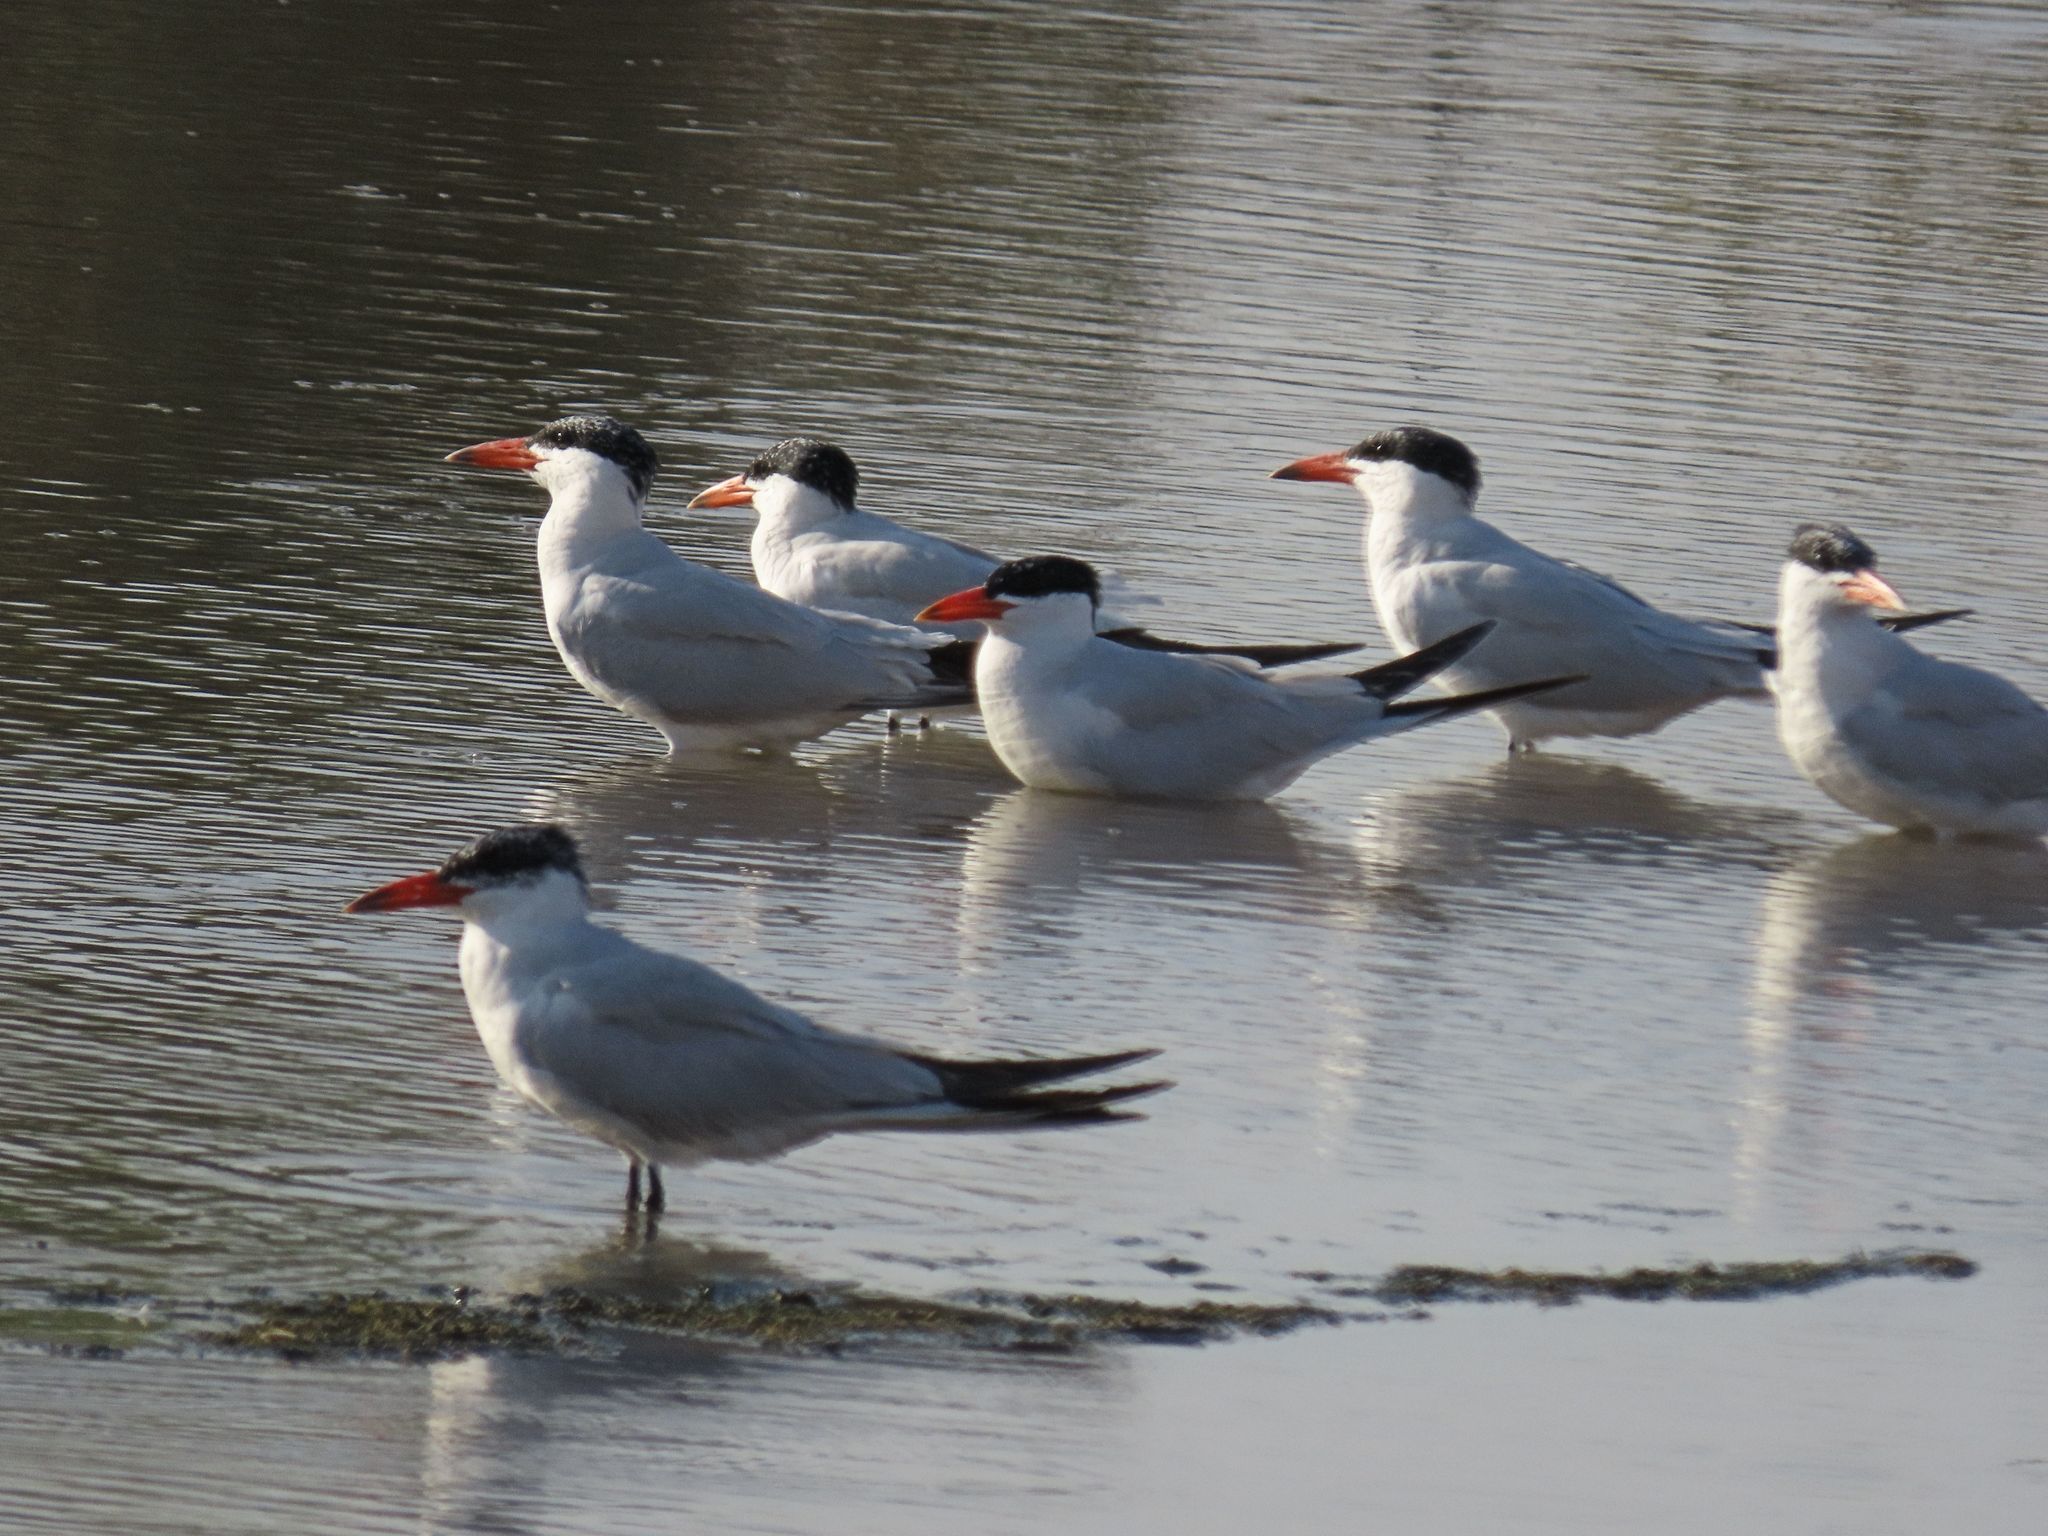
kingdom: Animalia
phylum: Chordata
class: Aves
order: Charadriiformes
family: Laridae
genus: Hydroprogne
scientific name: Hydroprogne caspia
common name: Caspian tern
